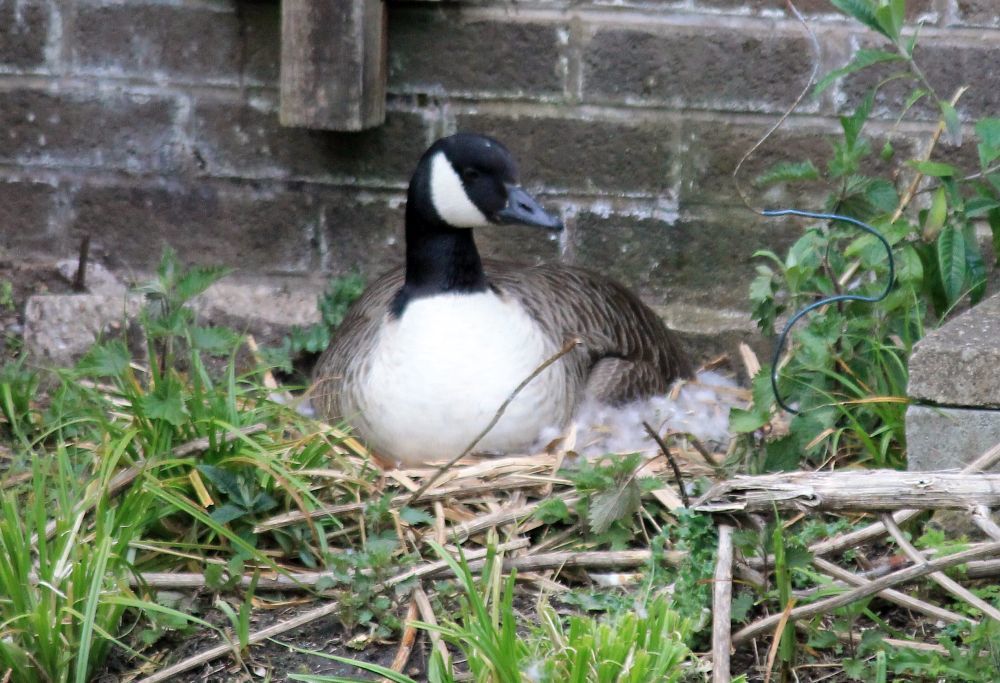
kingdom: Animalia
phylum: Chordata
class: Aves
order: Anseriformes
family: Anatidae
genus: Branta
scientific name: Branta canadensis
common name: Canada goose
